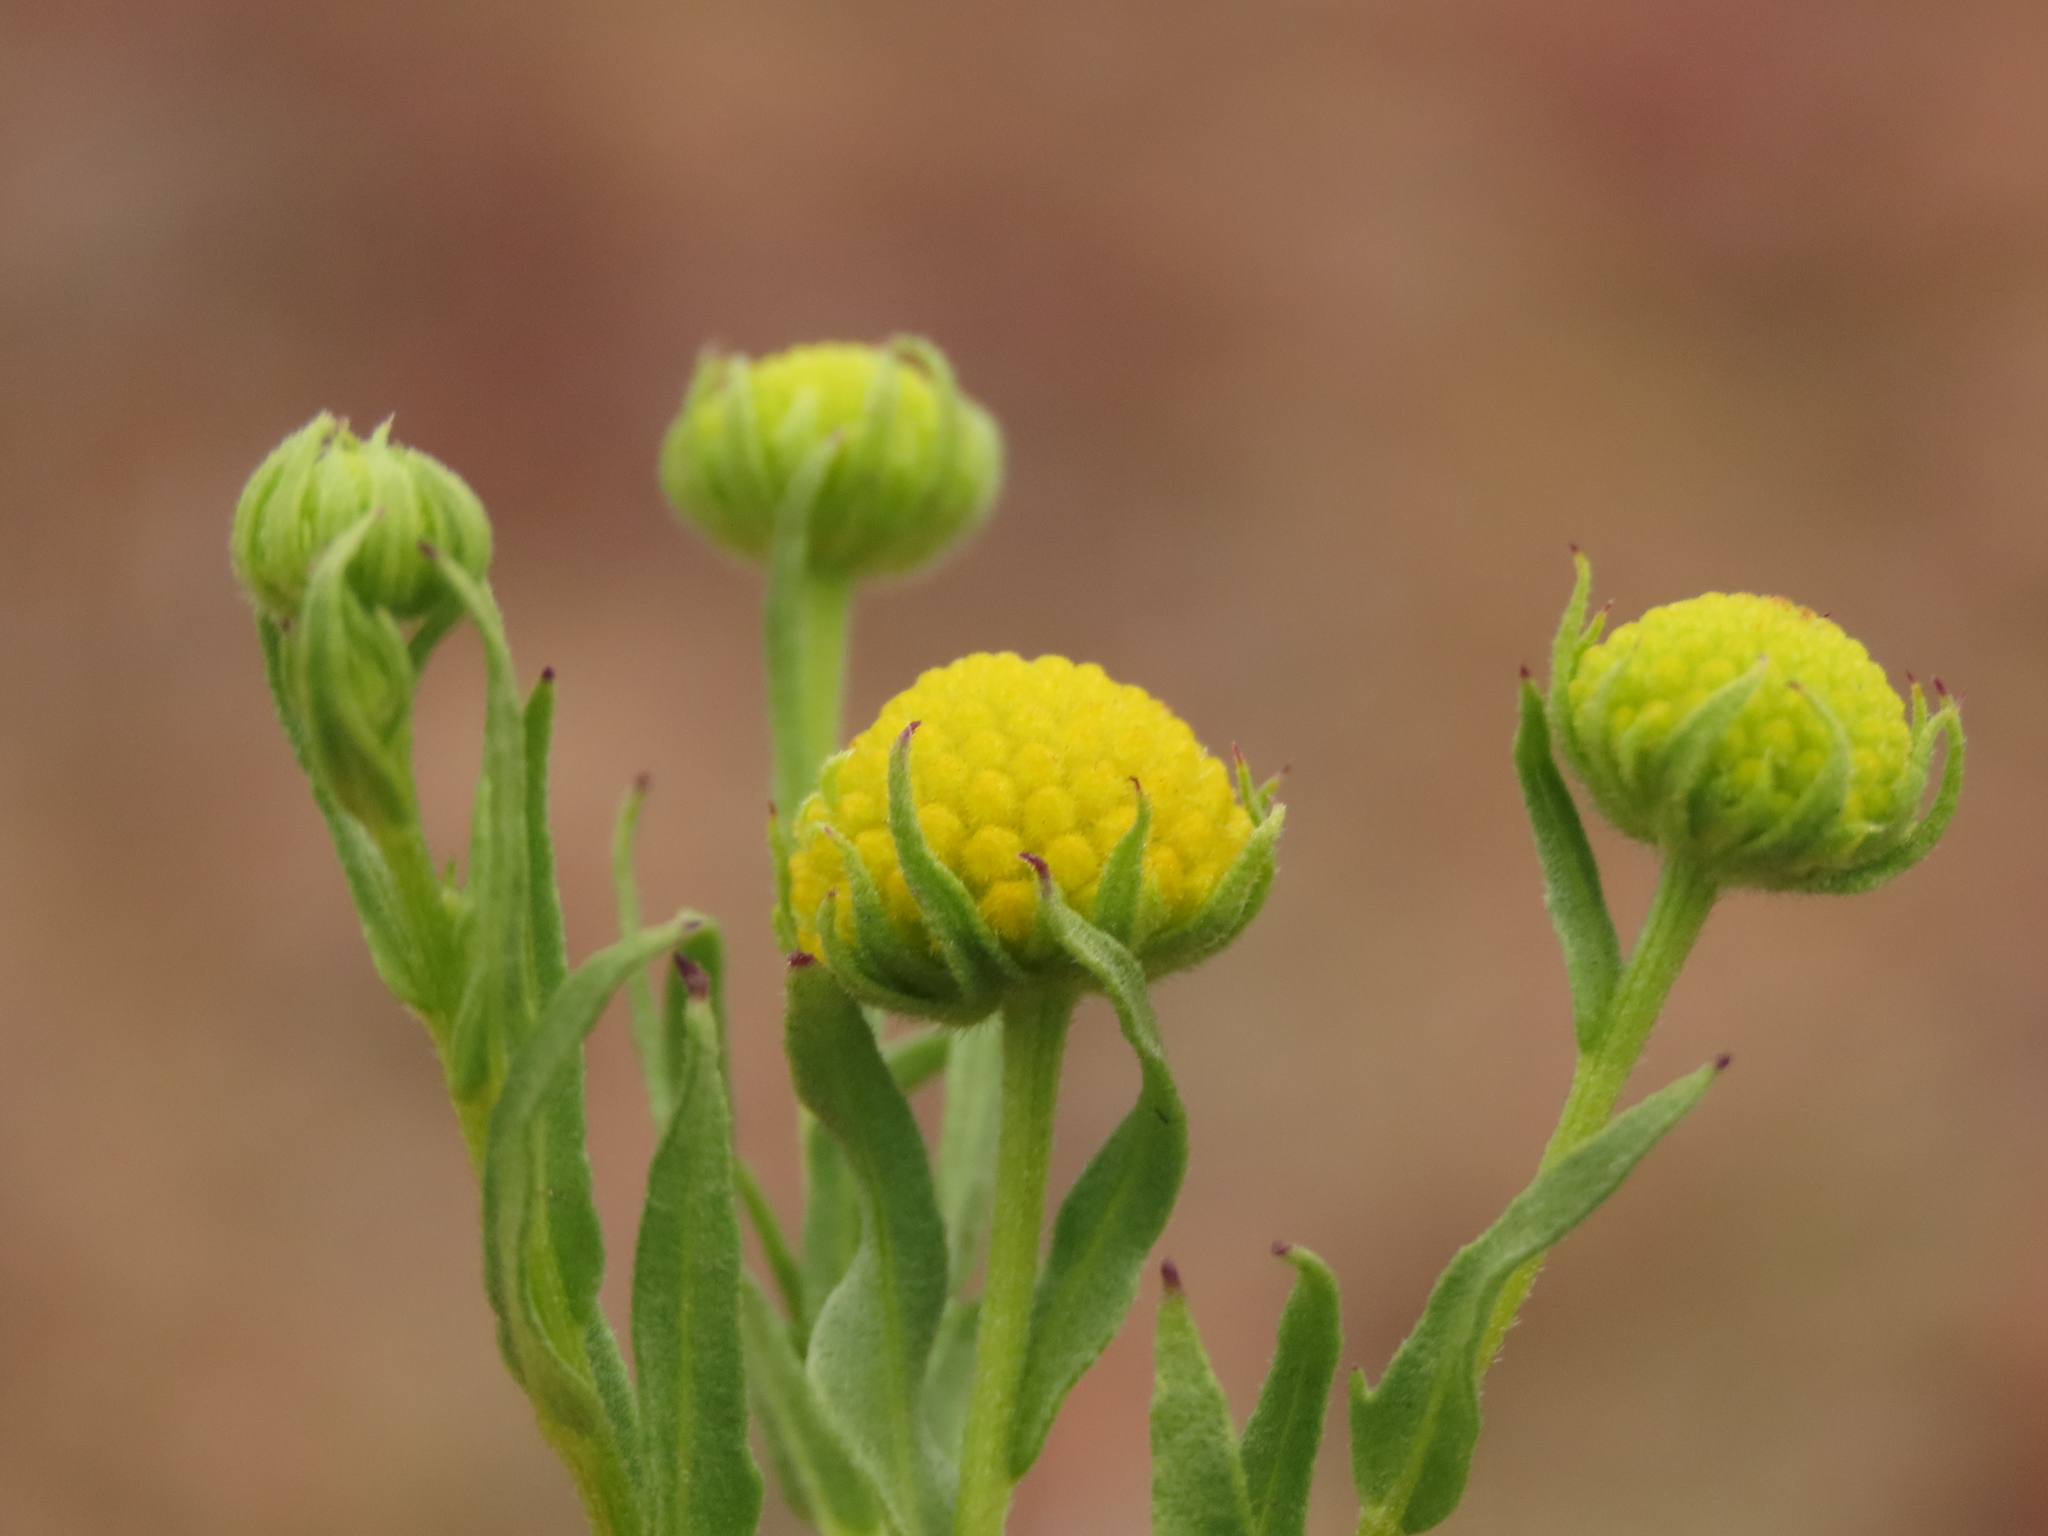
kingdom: Plantae
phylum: Tracheophyta
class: Magnoliopsida
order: Asterales
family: Asteraceae
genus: Helenium
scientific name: Helenium atacamense
